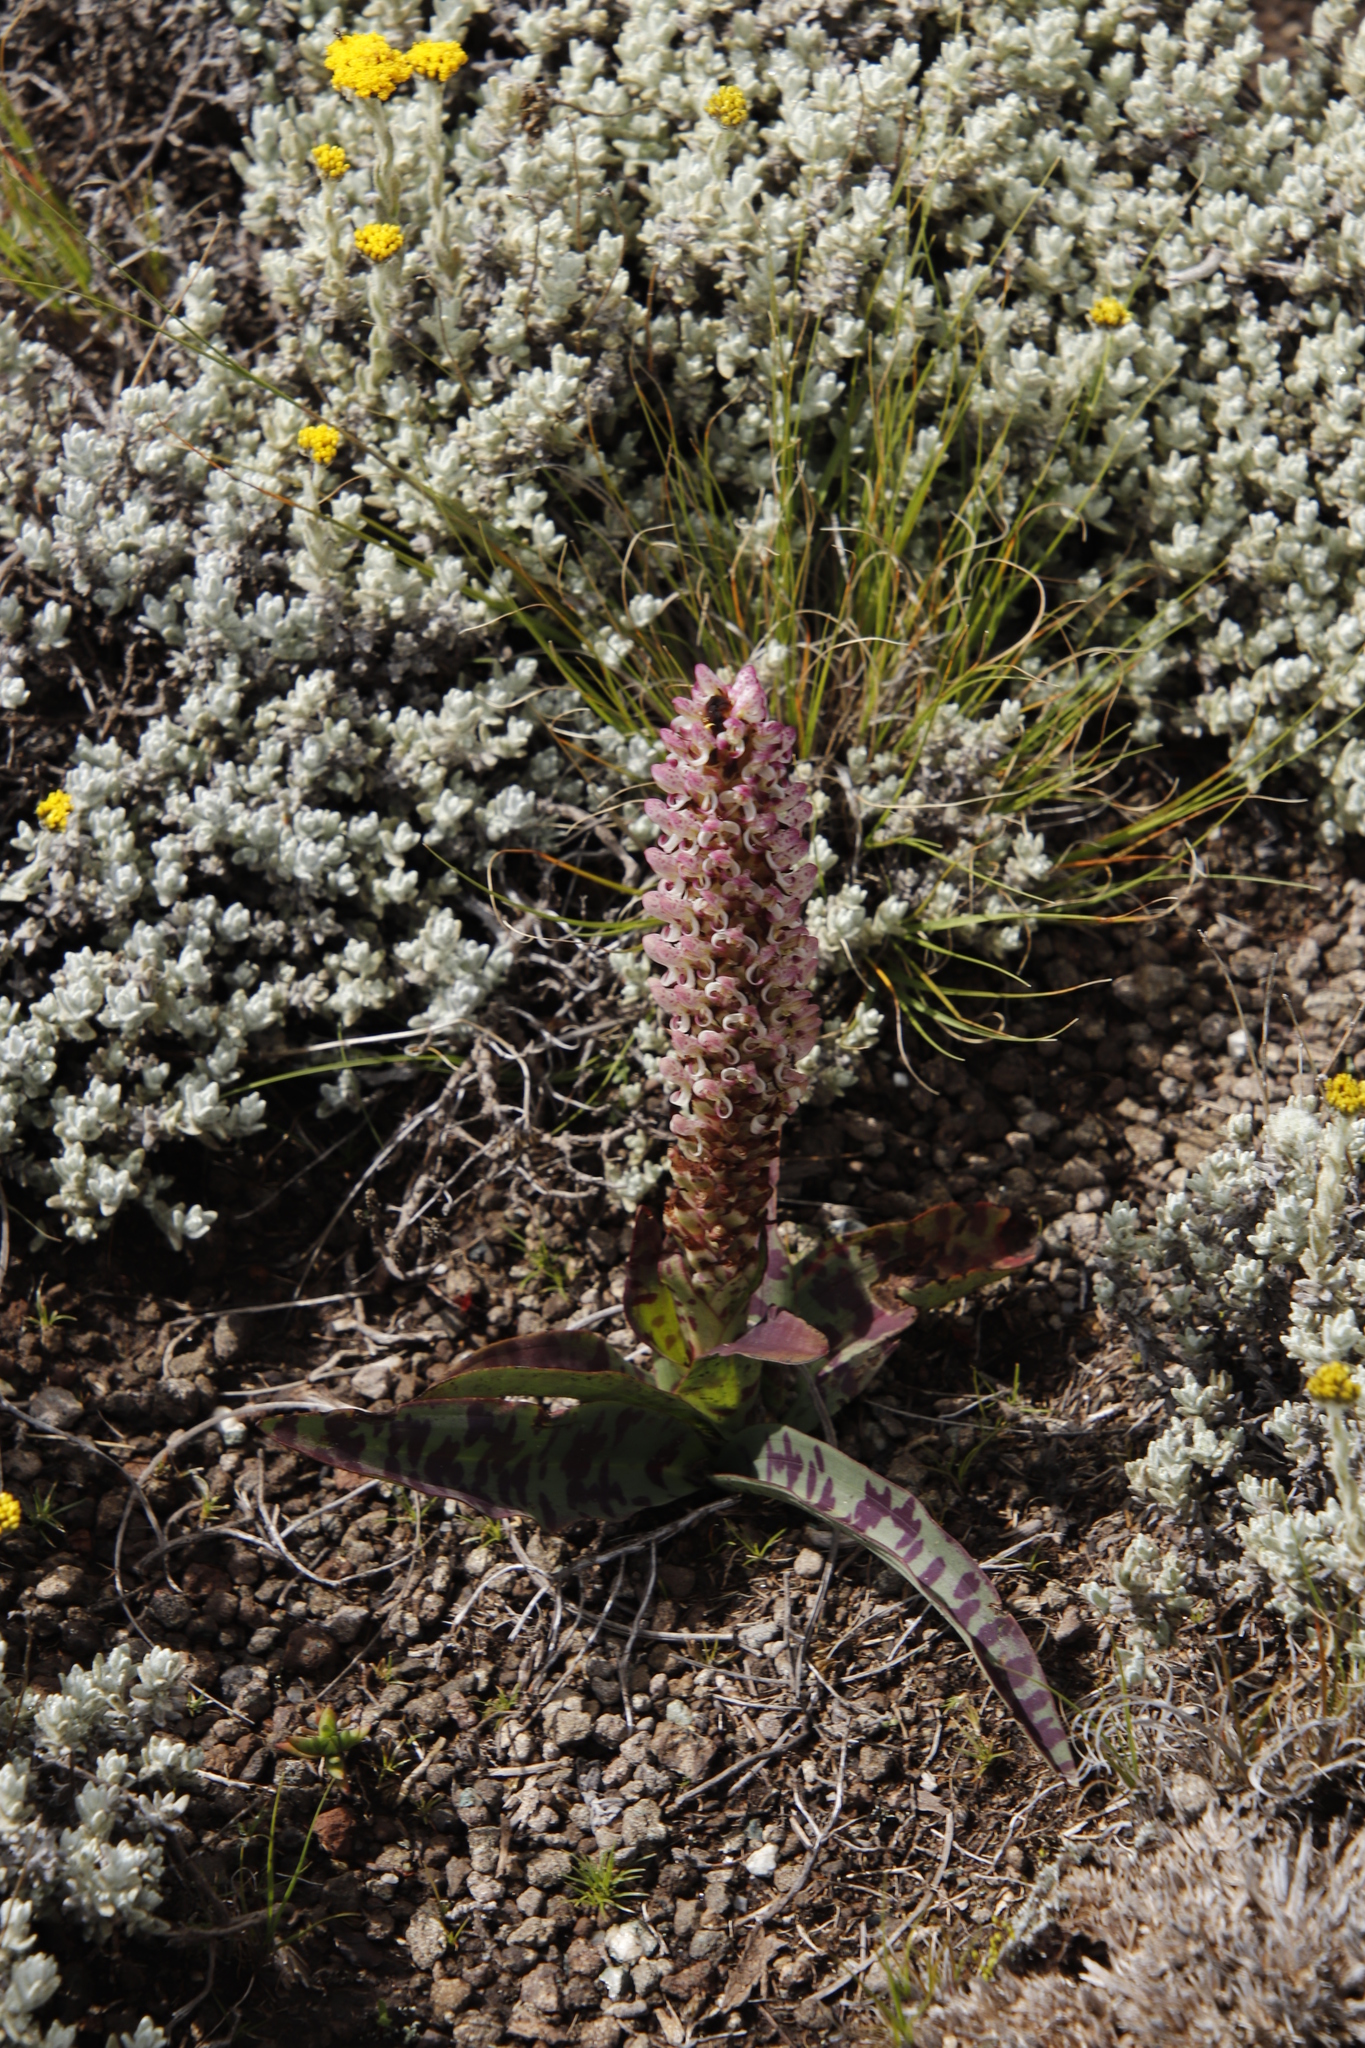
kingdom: Plantae
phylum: Tracheophyta
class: Liliopsida
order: Asparagales
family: Orchidaceae
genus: Disa
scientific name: Disa fragrans
